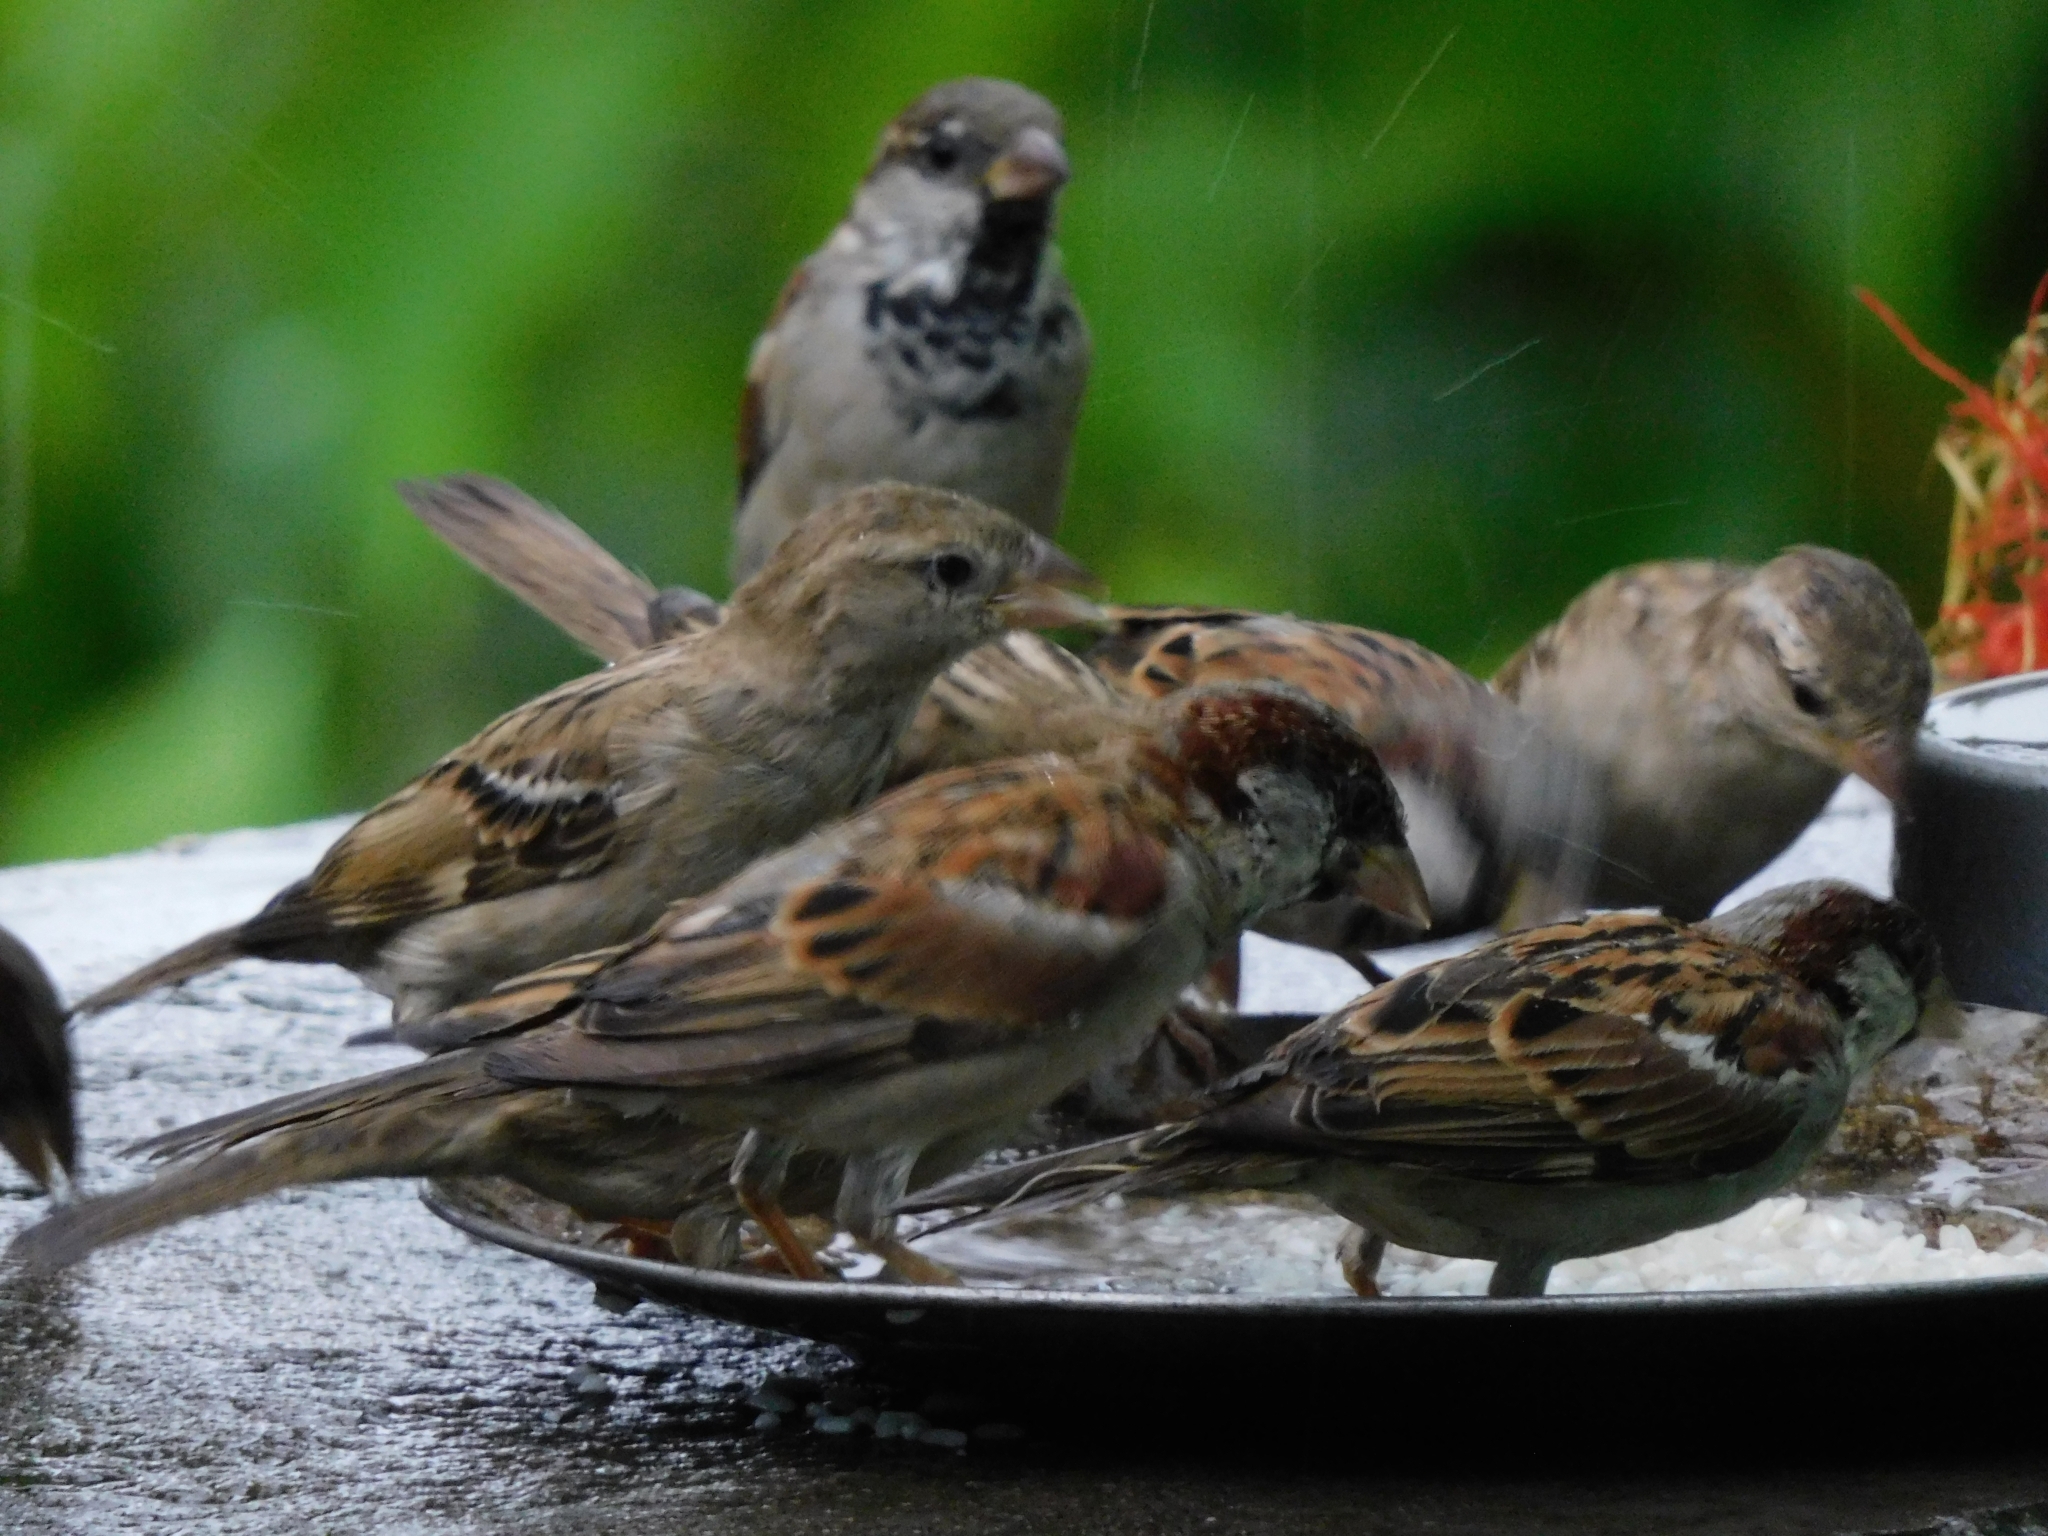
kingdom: Animalia
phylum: Chordata
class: Aves
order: Passeriformes
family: Passeridae
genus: Passer
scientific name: Passer domesticus
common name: House sparrow
